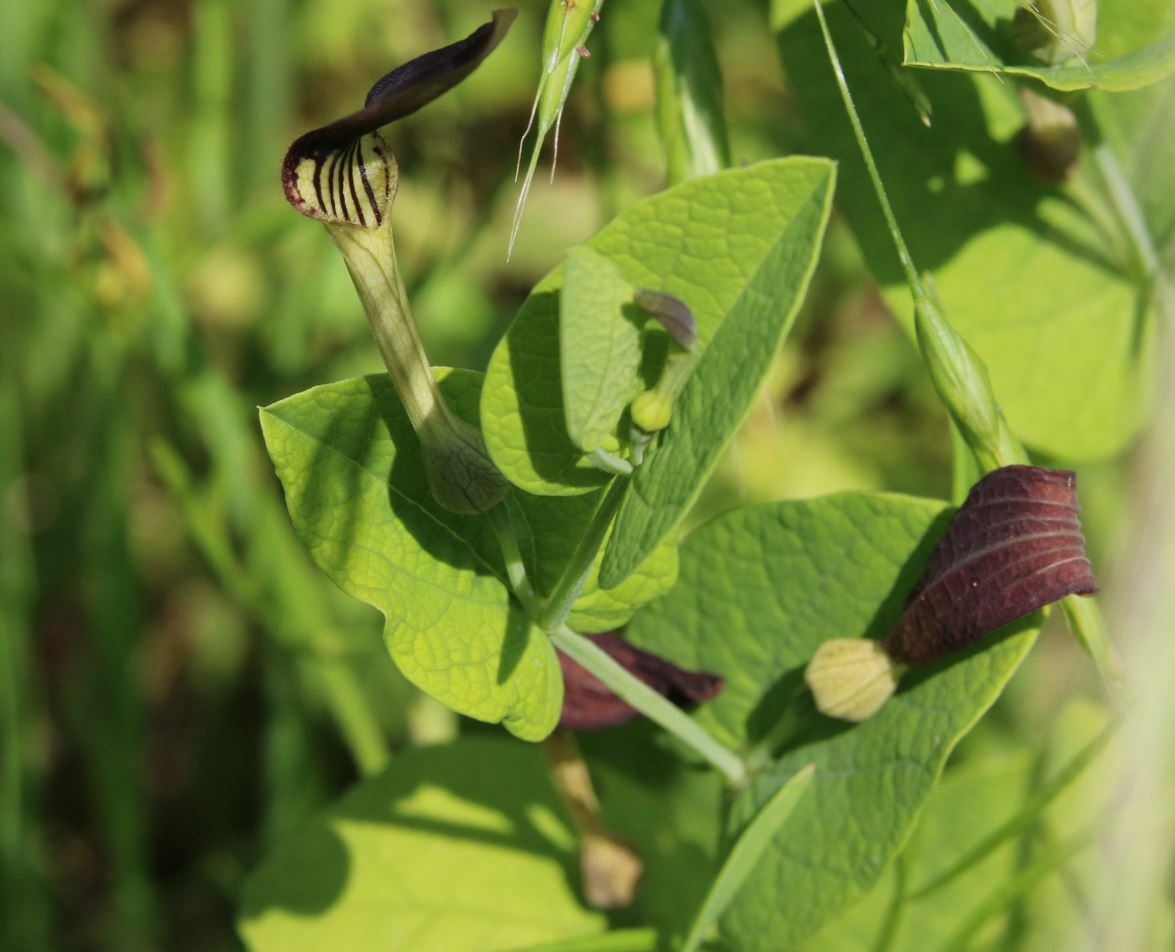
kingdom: Plantae
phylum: Tracheophyta
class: Magnoliopsida
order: Piperales
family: Aristolochiaceae
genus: Aristolochia
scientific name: Aristolochia rotunda
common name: Smearwort
